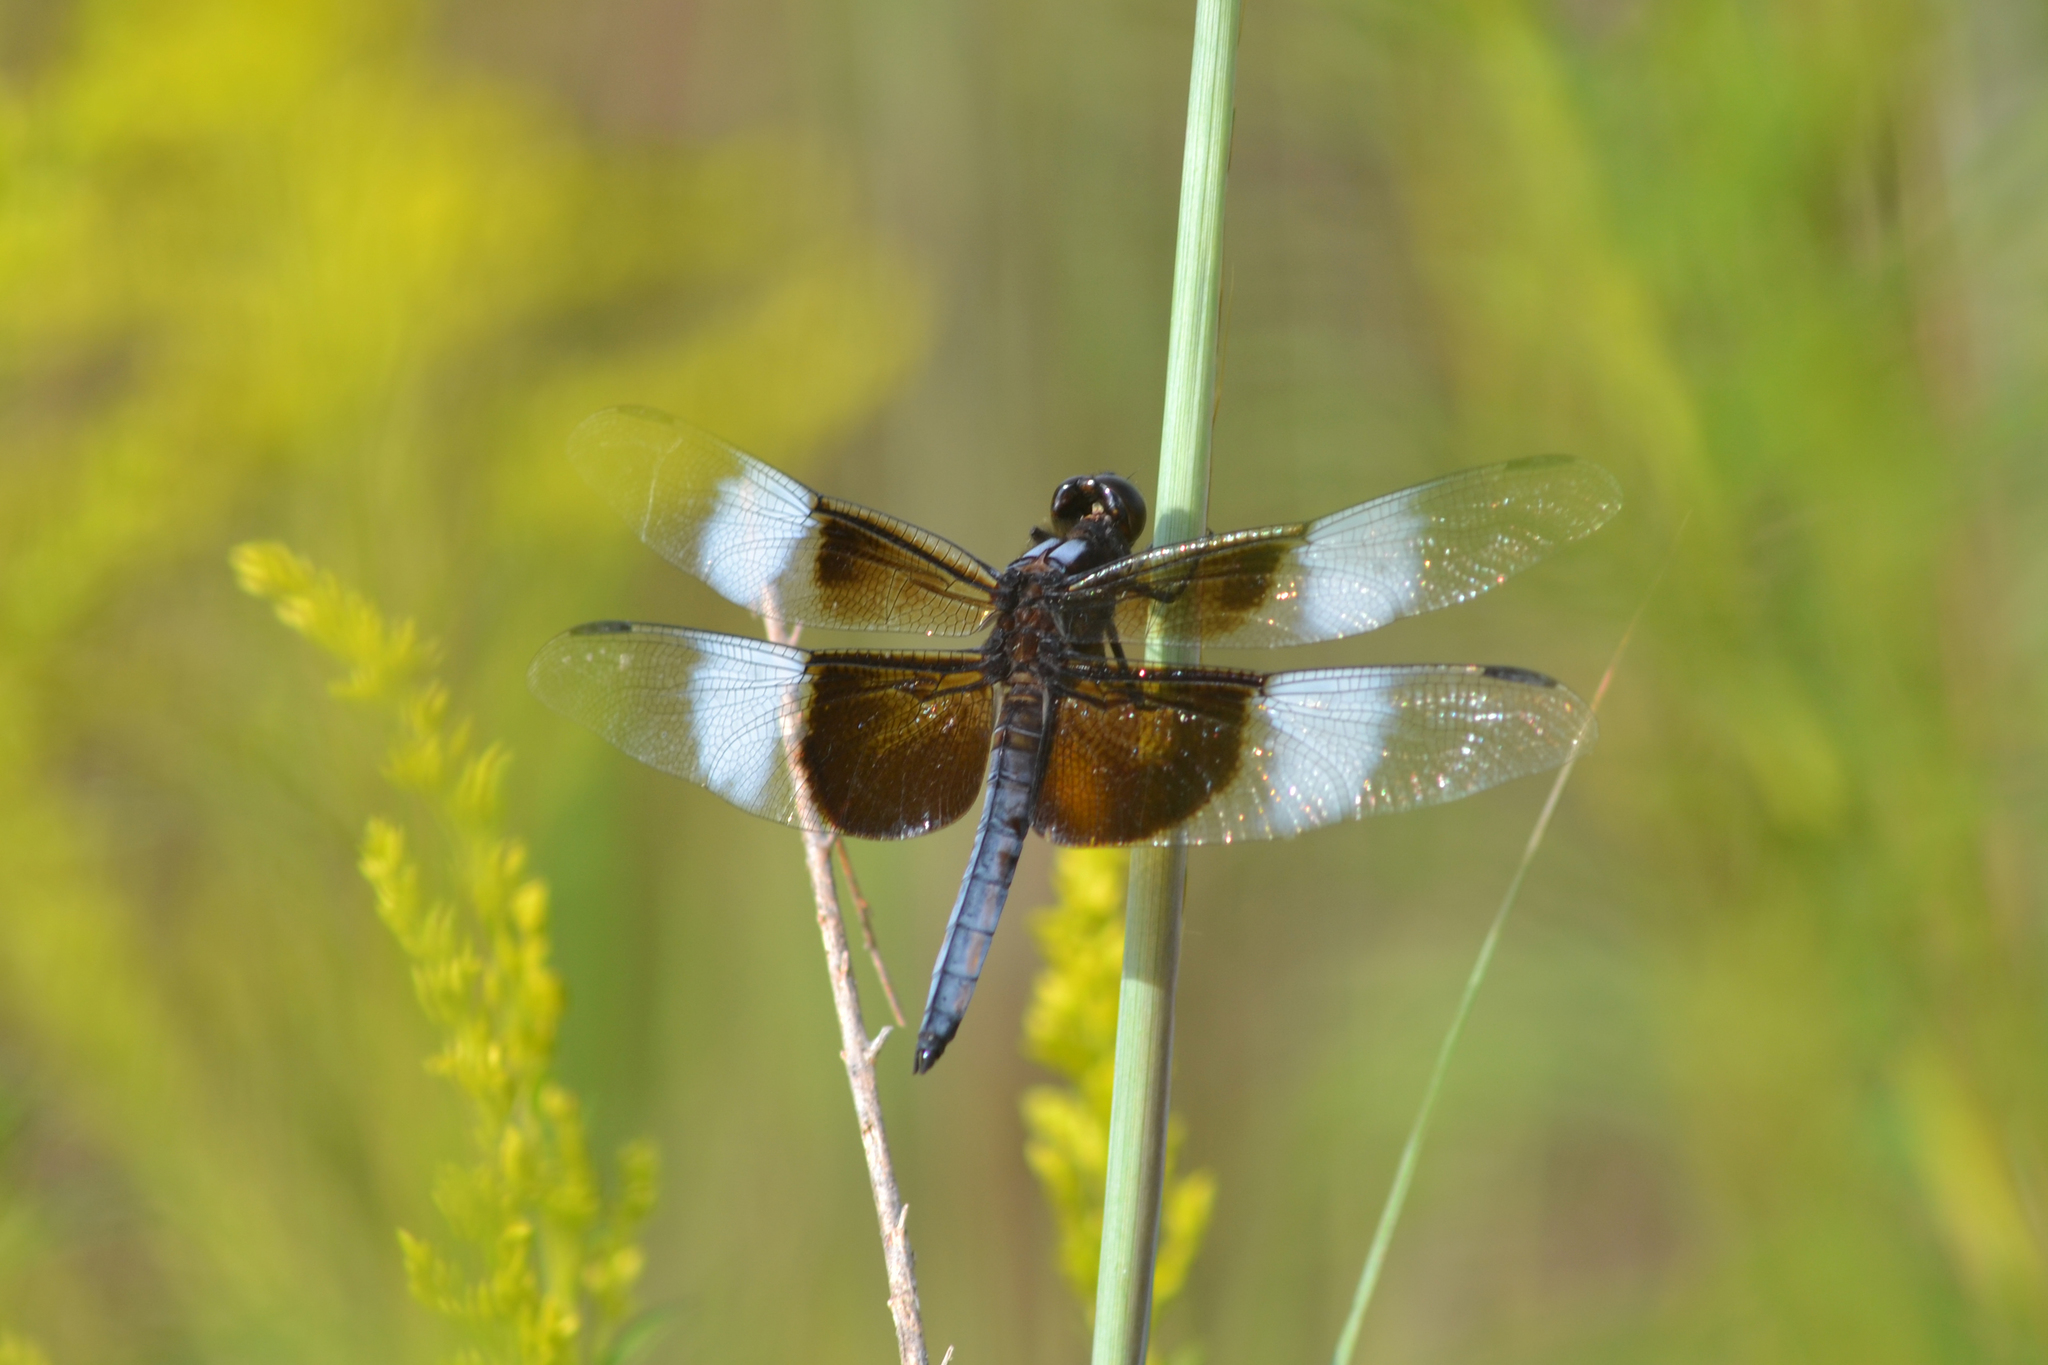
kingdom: Animalia
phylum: Arthropoda
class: Insecta
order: Odonata
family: Libellulidae
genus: Libellula
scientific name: Libellula luctuosa
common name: Widow skimmer
